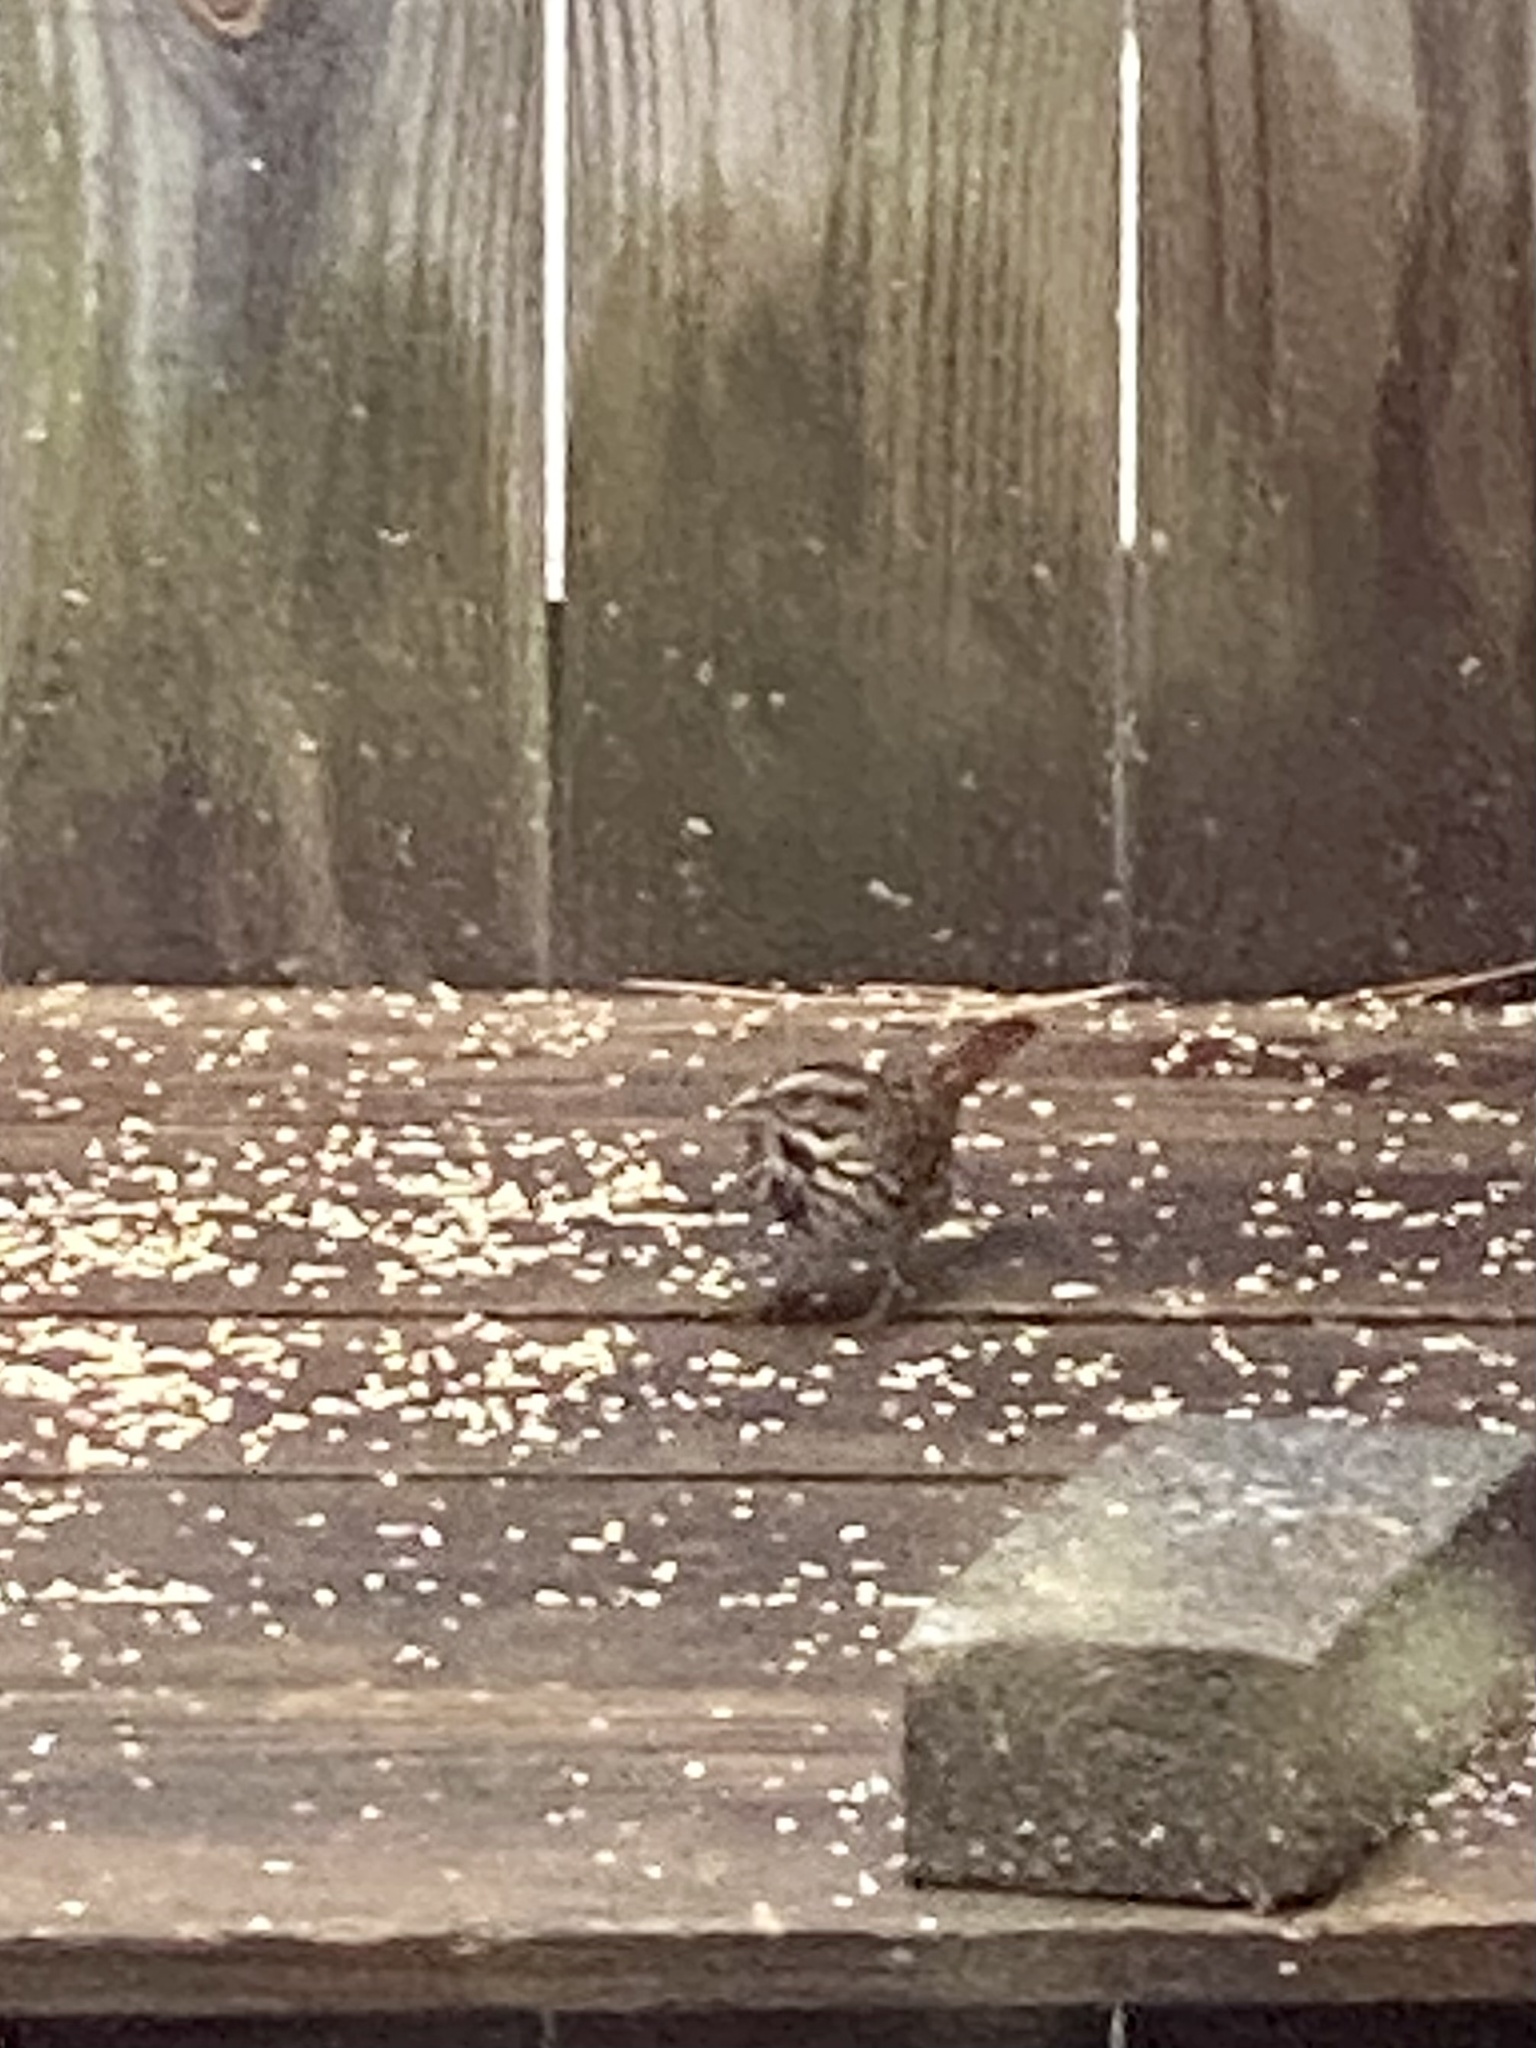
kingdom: Animalia
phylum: Chordata
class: Aves
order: Passeriformes
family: Passerellidae
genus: Melospiza
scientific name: Melospiza melodia
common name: Song sparrow
